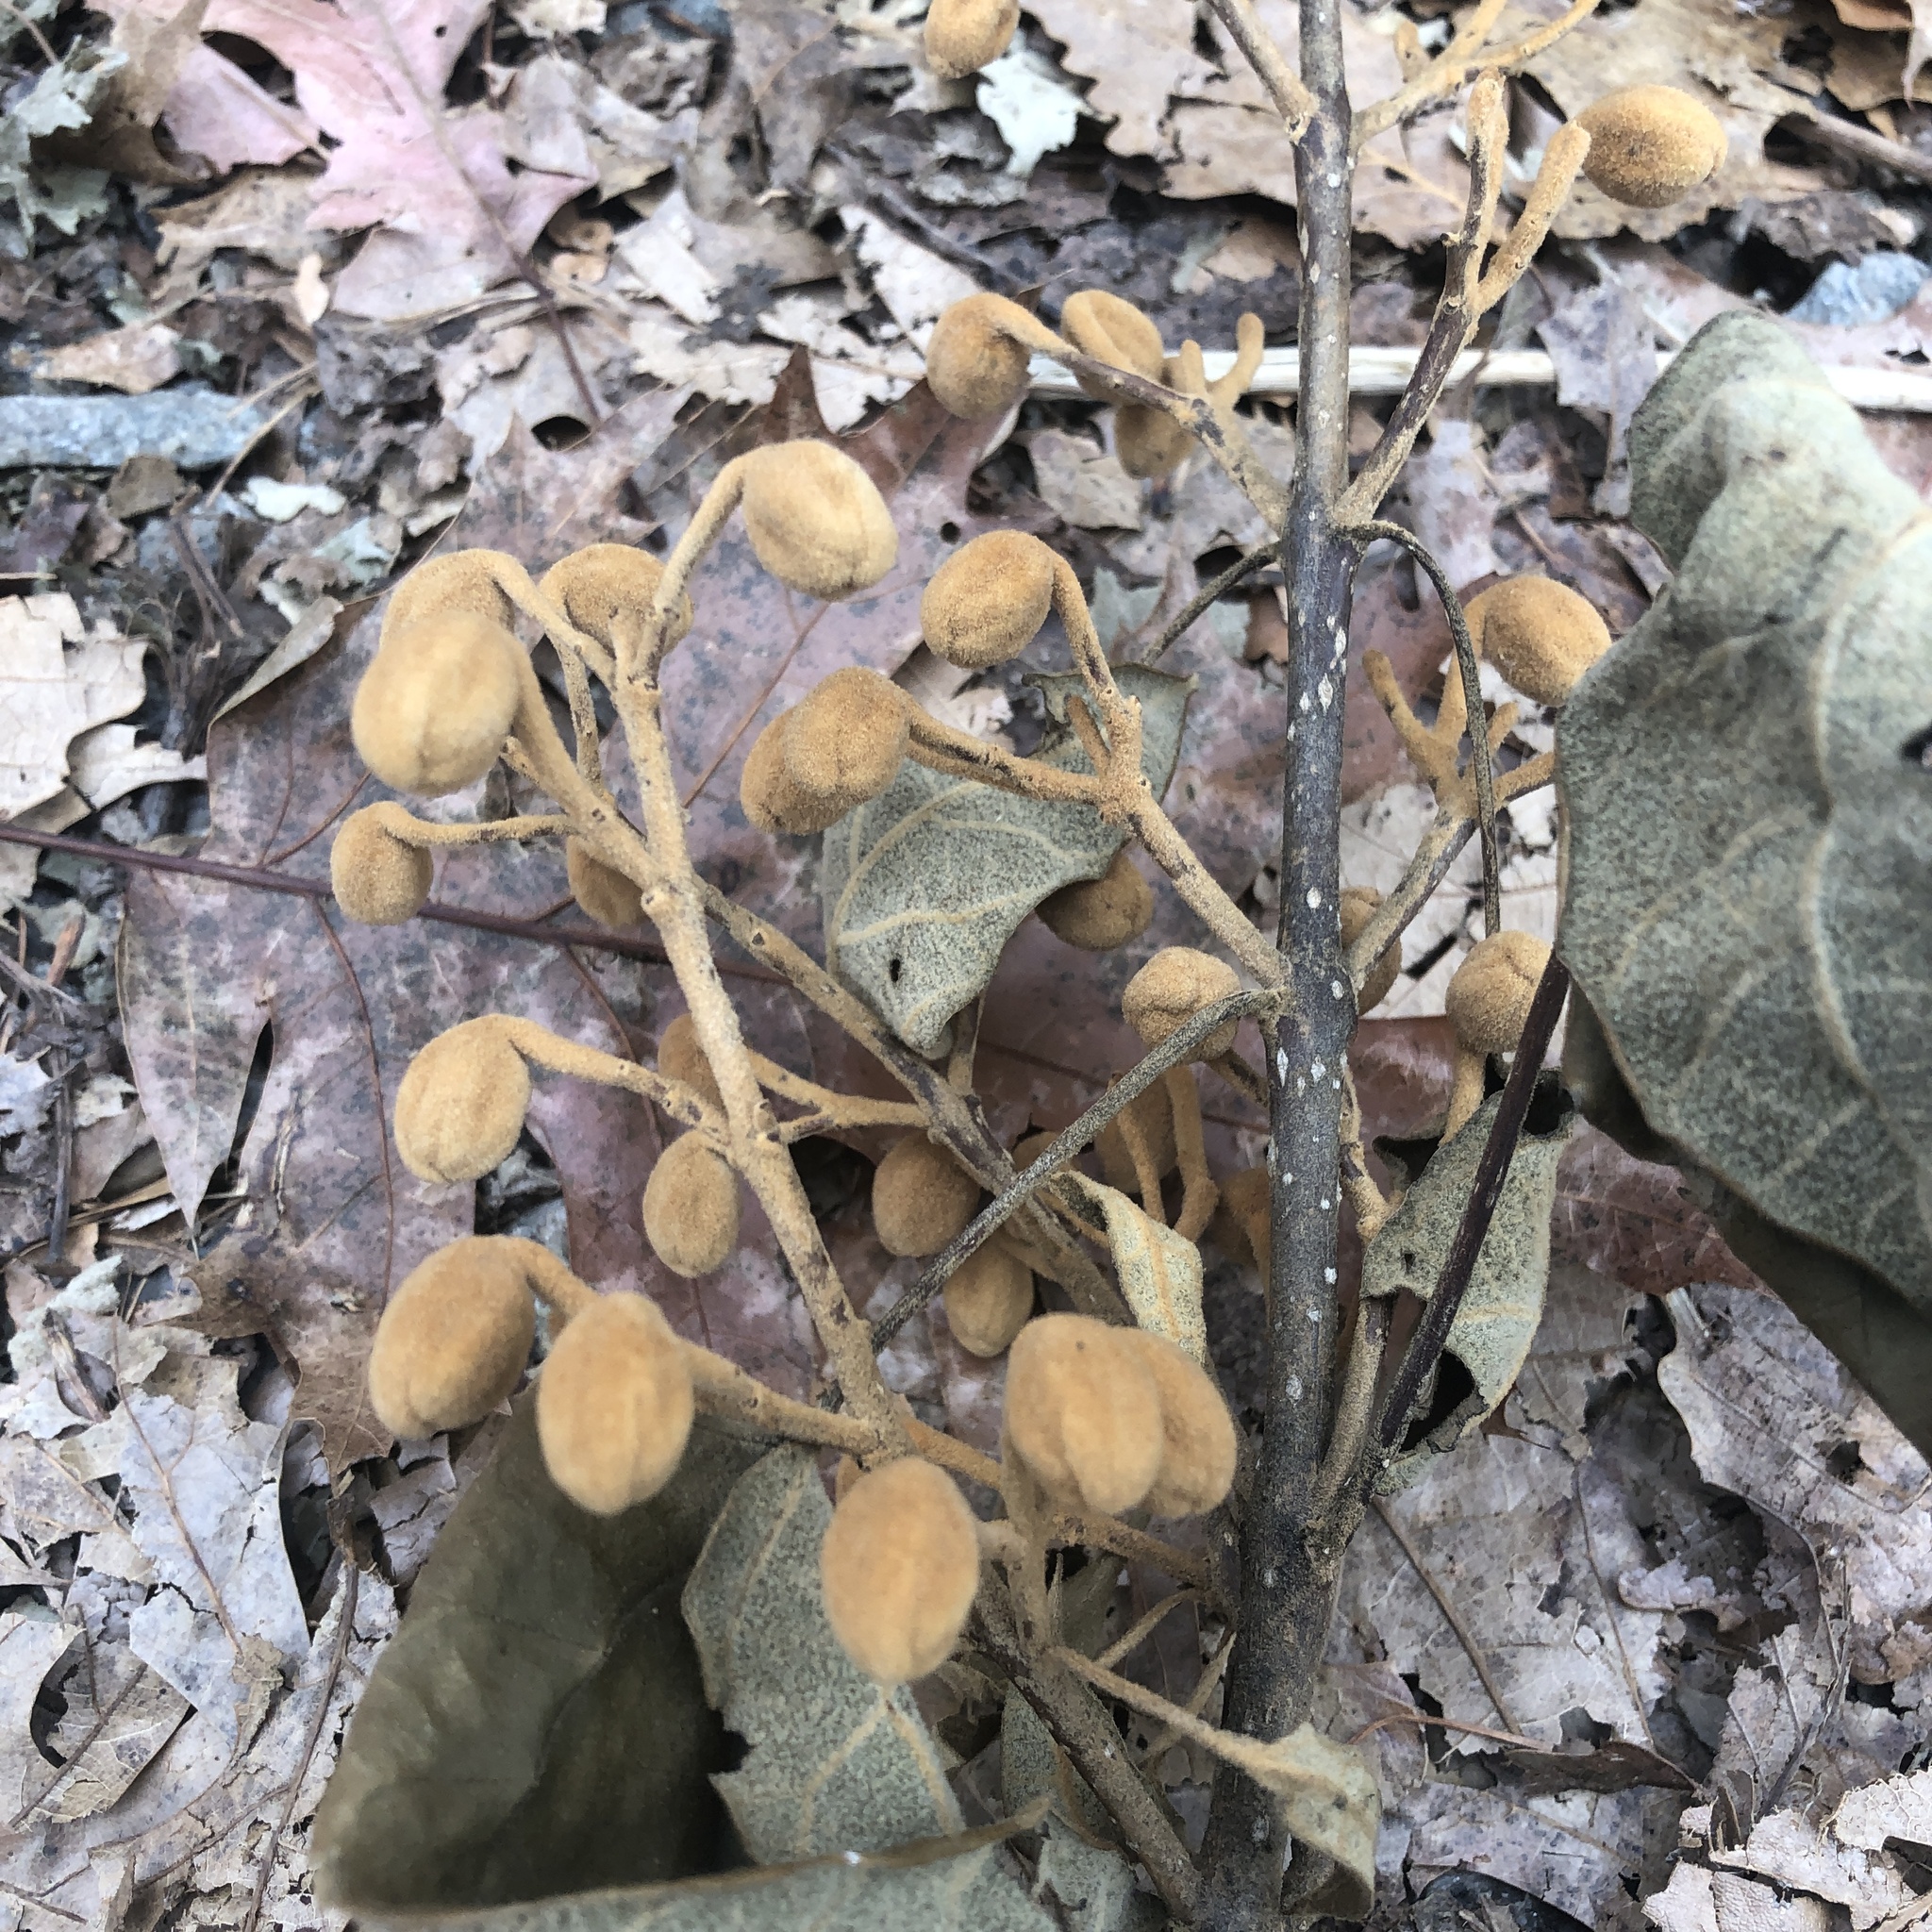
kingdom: Plantae
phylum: Tracheophyta
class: Magnoliopsida
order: Lamiales
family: Paulowniaceae
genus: Paulownia
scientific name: Paulownia tomentosa
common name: Foxglove-tree
